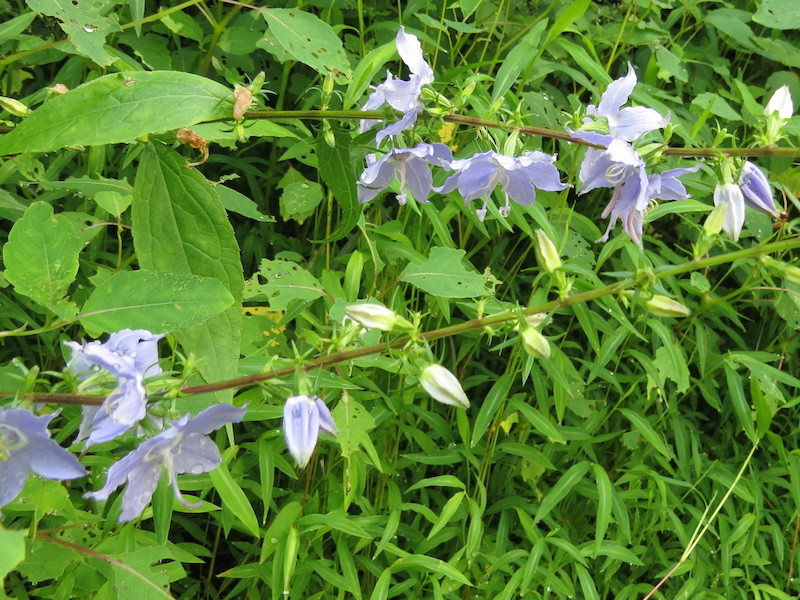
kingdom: Plantae
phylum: Tracheophyta
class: Magnoliopsida
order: Asterales
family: Campanulaceae
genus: Campanulastrum
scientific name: Campanulastrum americanum
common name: American bellflower
